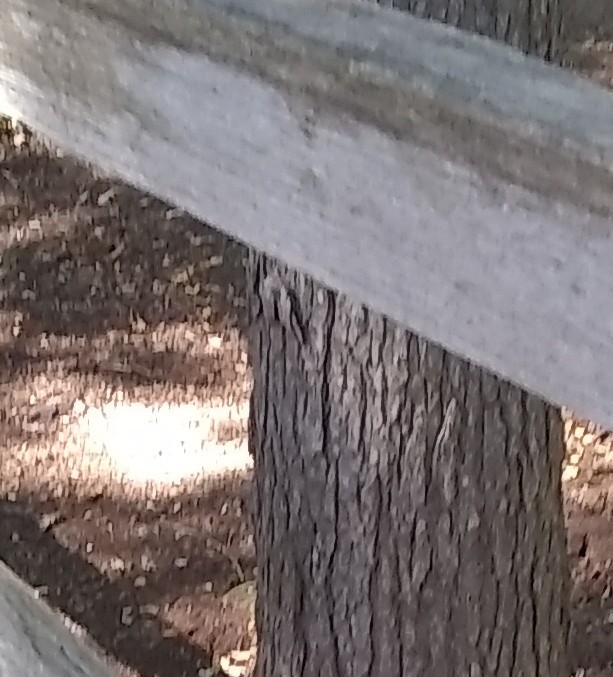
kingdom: Animalia
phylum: Arthropoda
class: Insecta
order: Lepidoptera
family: Erebidae
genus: Catocala
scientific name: Catocala maestosa
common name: Sad underwing
